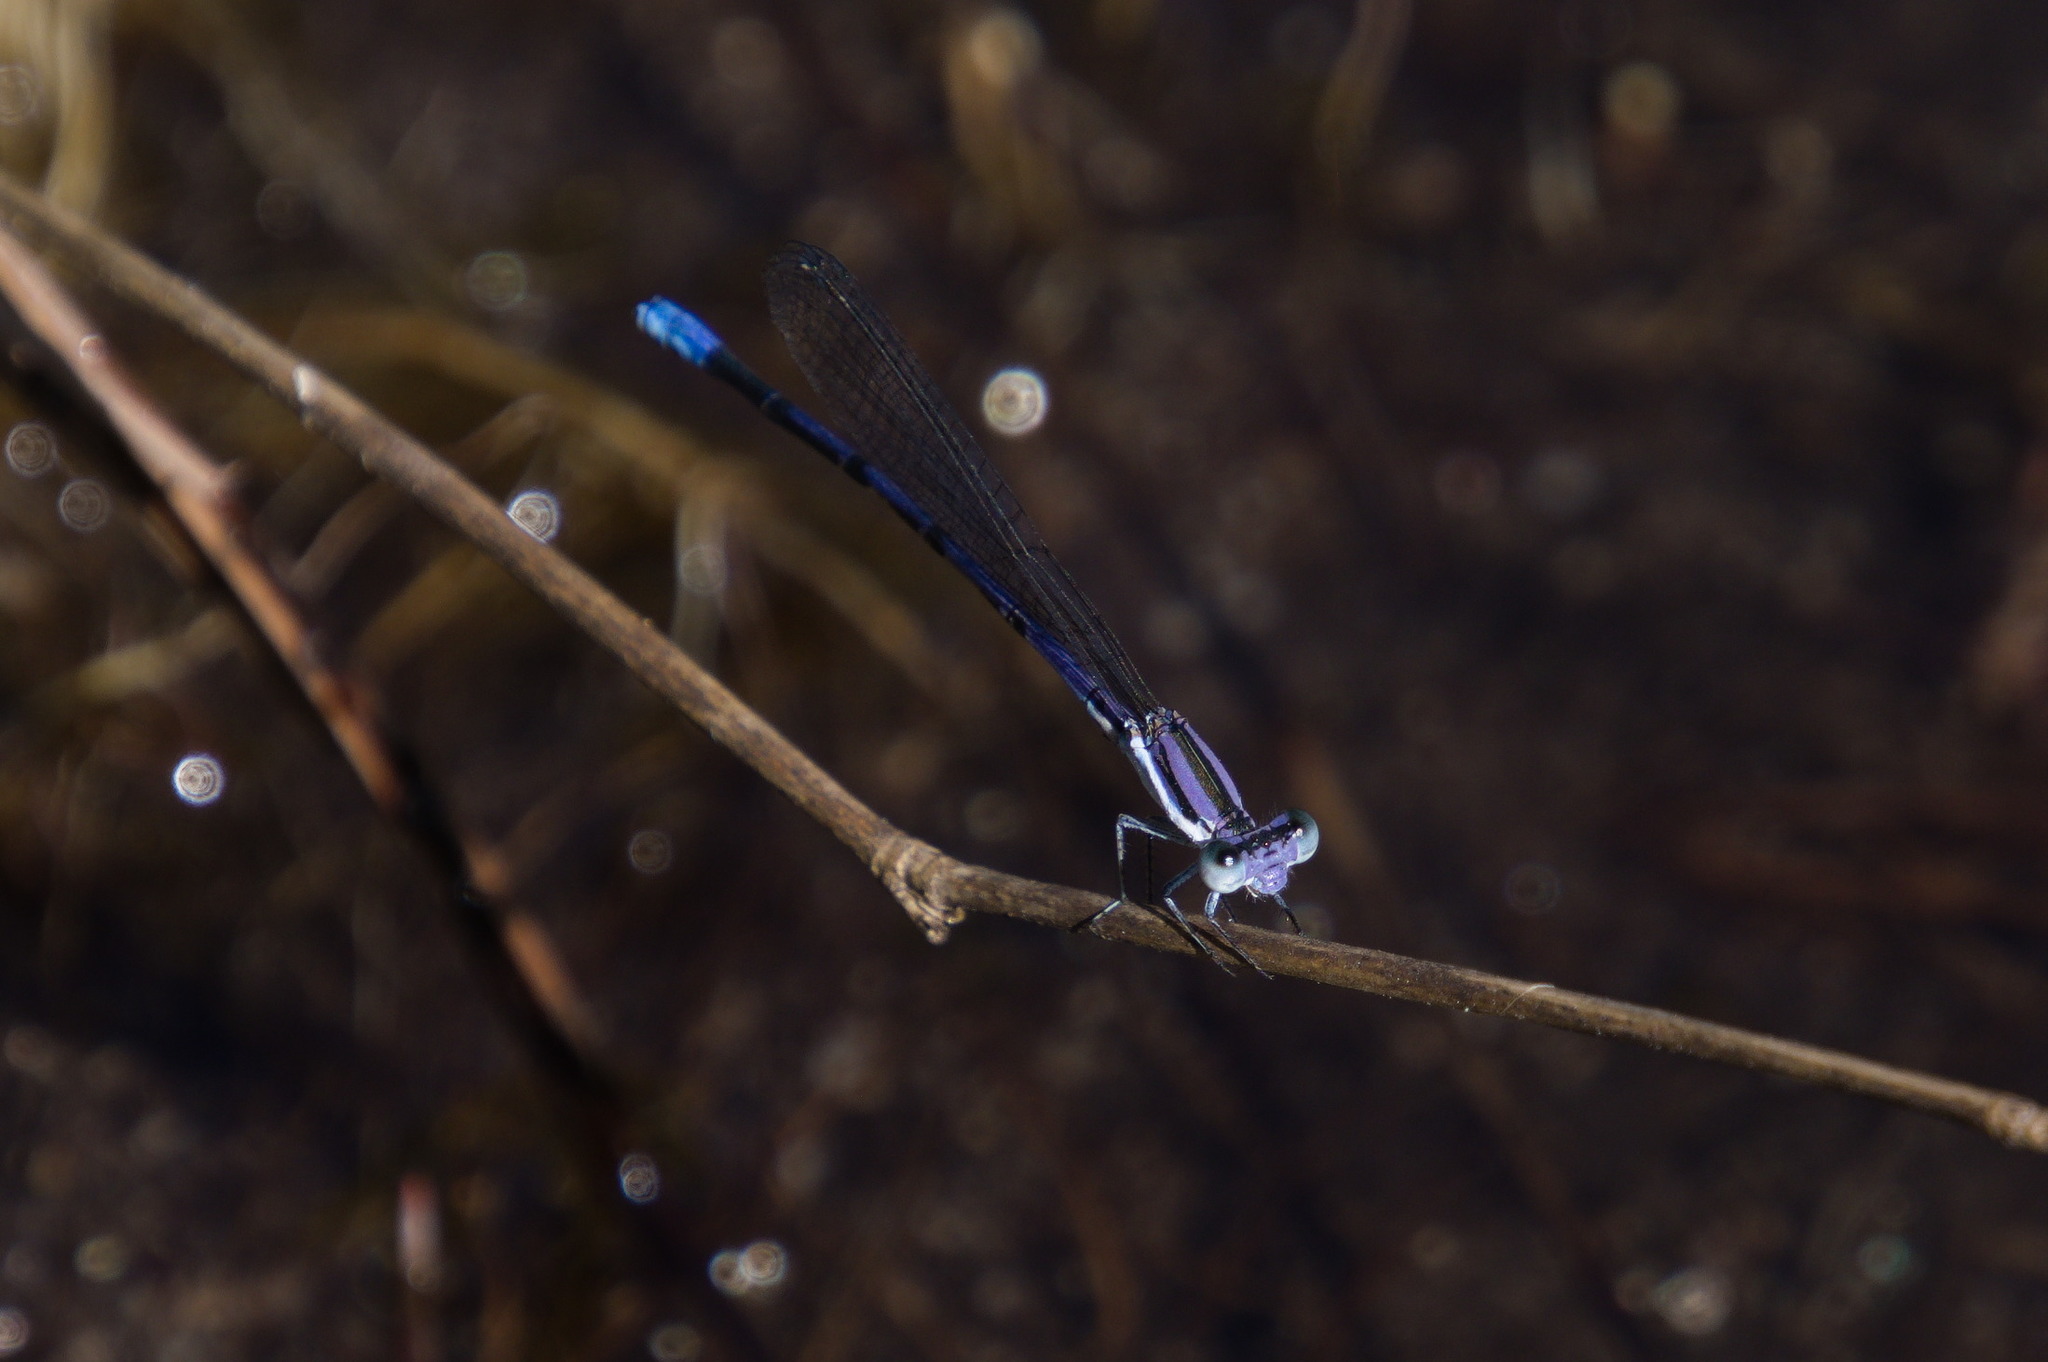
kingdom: Animalia
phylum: Arthropoda
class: Insecta
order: Odonata
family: Coenagrionidae
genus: Argia
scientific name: Argia hinei
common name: Lavender dancer
